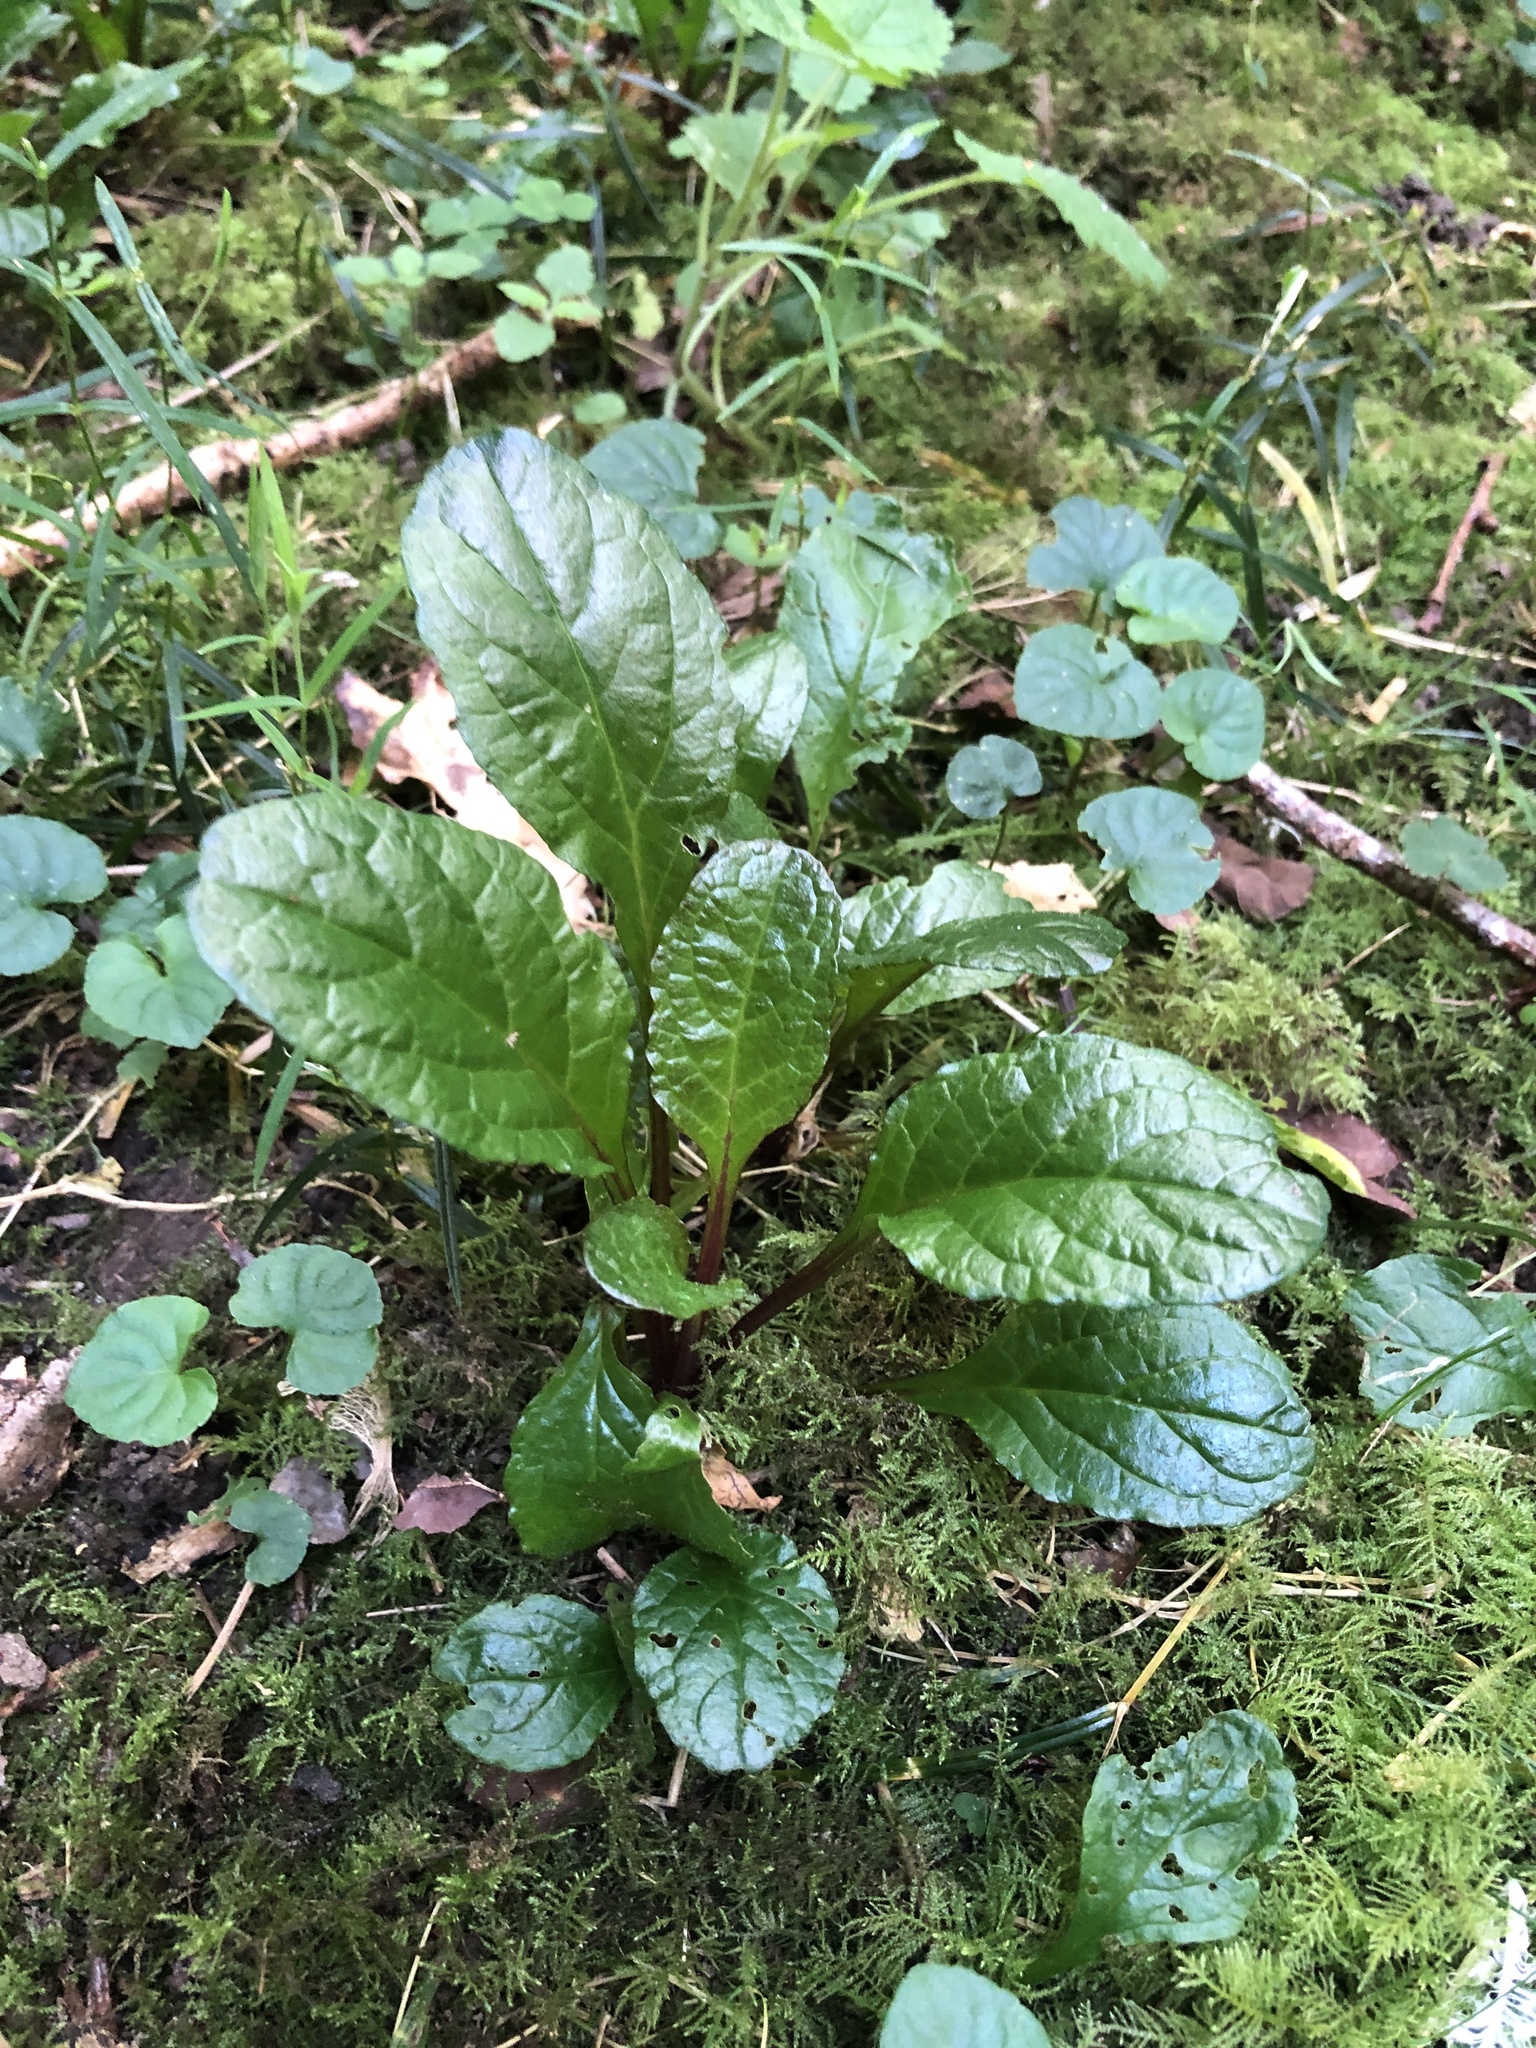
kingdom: Plantae
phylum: Tracheophyta
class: Magnoliopsida
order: Lamiales
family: Lamiaceae
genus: Ajuga
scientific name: Ajuga reptans
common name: Bugle
